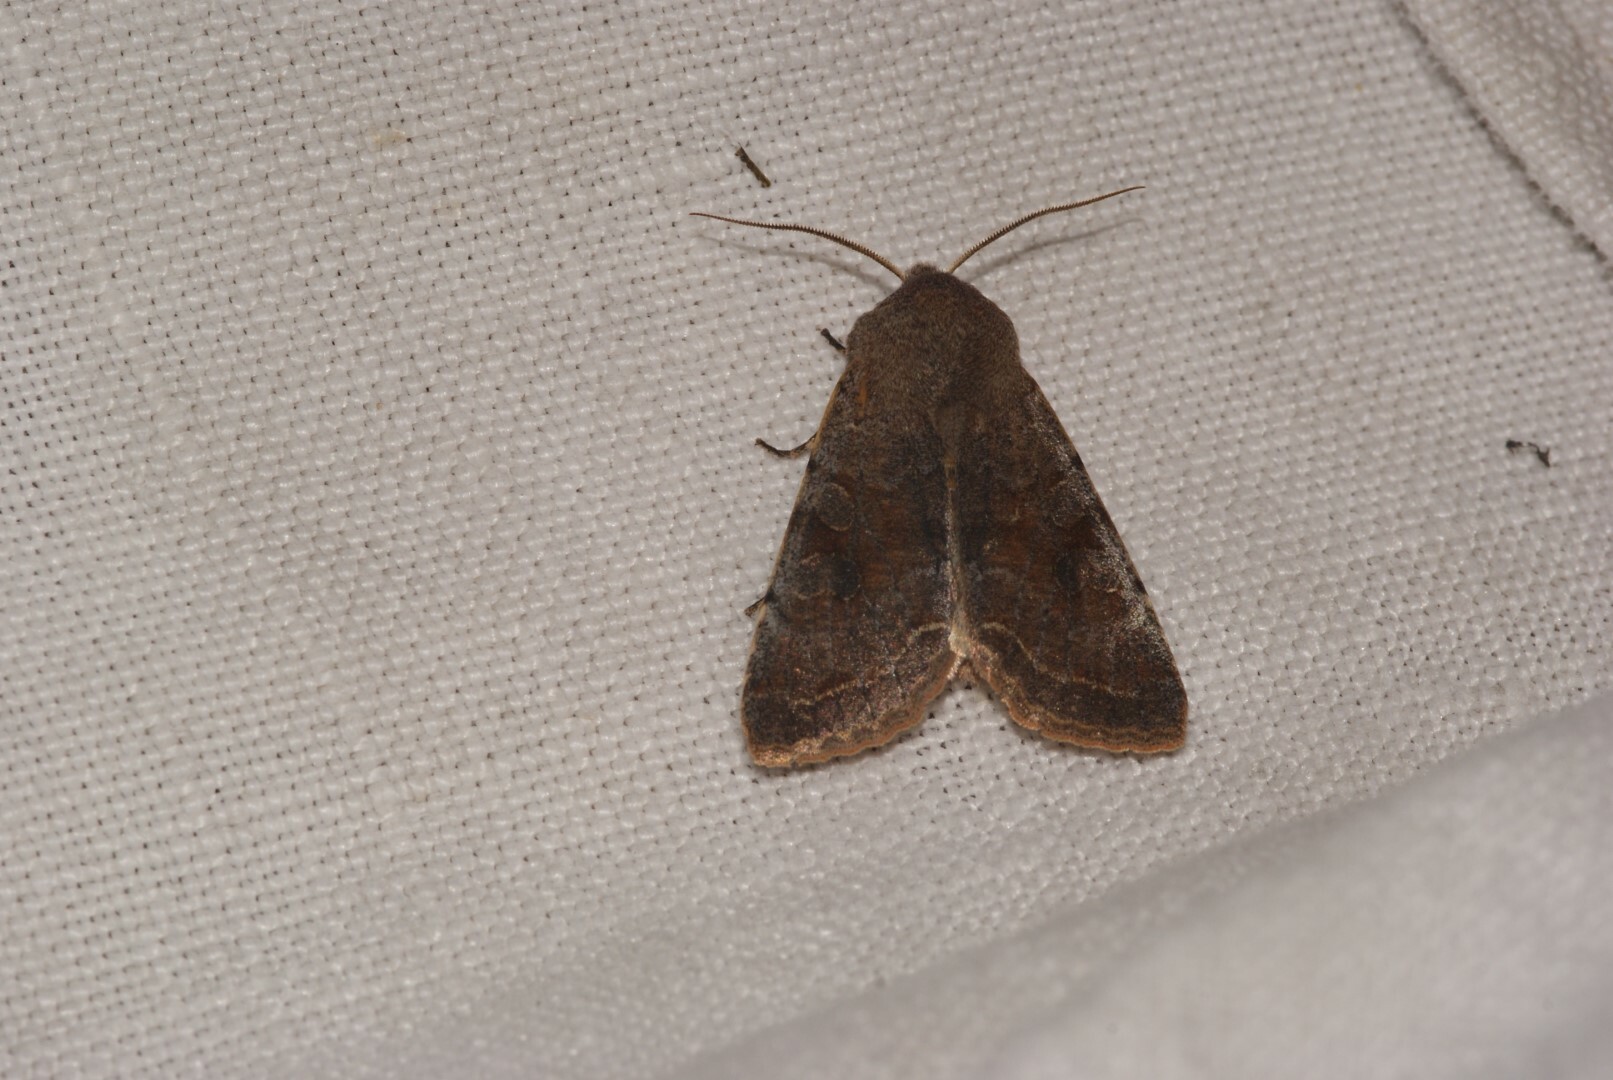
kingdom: Animalia
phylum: Arthropoda
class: Insecta
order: Lepidoptera
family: Noctuidae
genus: Orthosia
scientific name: Orthosia incerta
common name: Clouded drab
